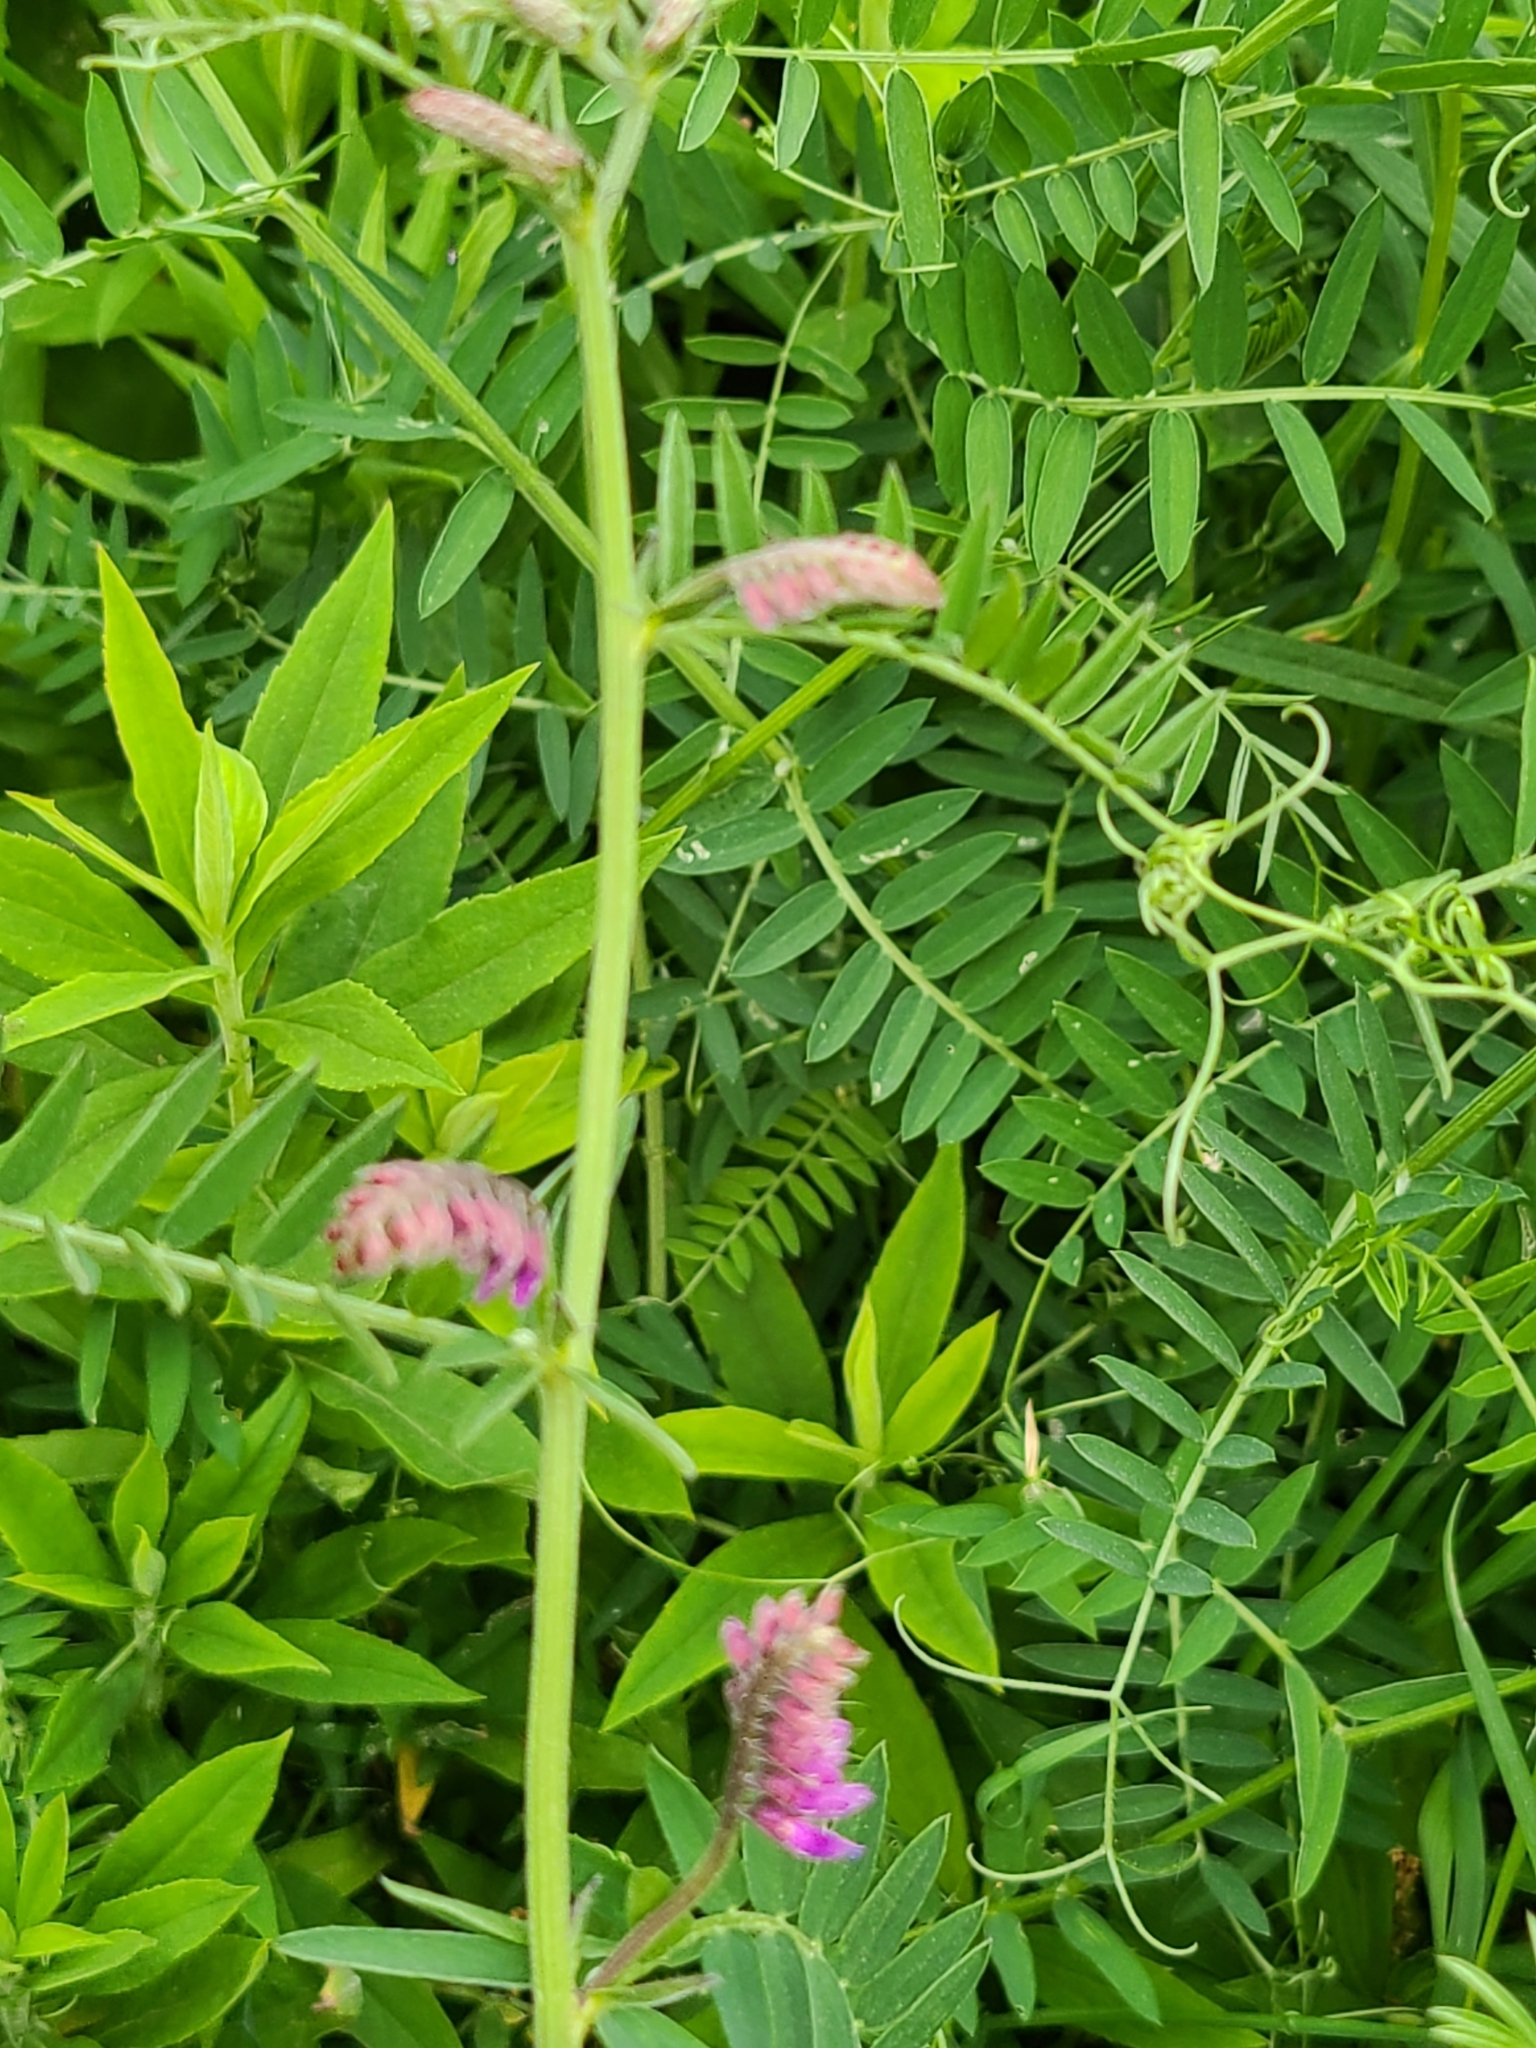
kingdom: Plantae
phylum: Tracheophyta
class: Magnoliopsida
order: Fabales
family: Fabaceae
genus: Vicia
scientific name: Vicia cracca
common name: Bird vetch
